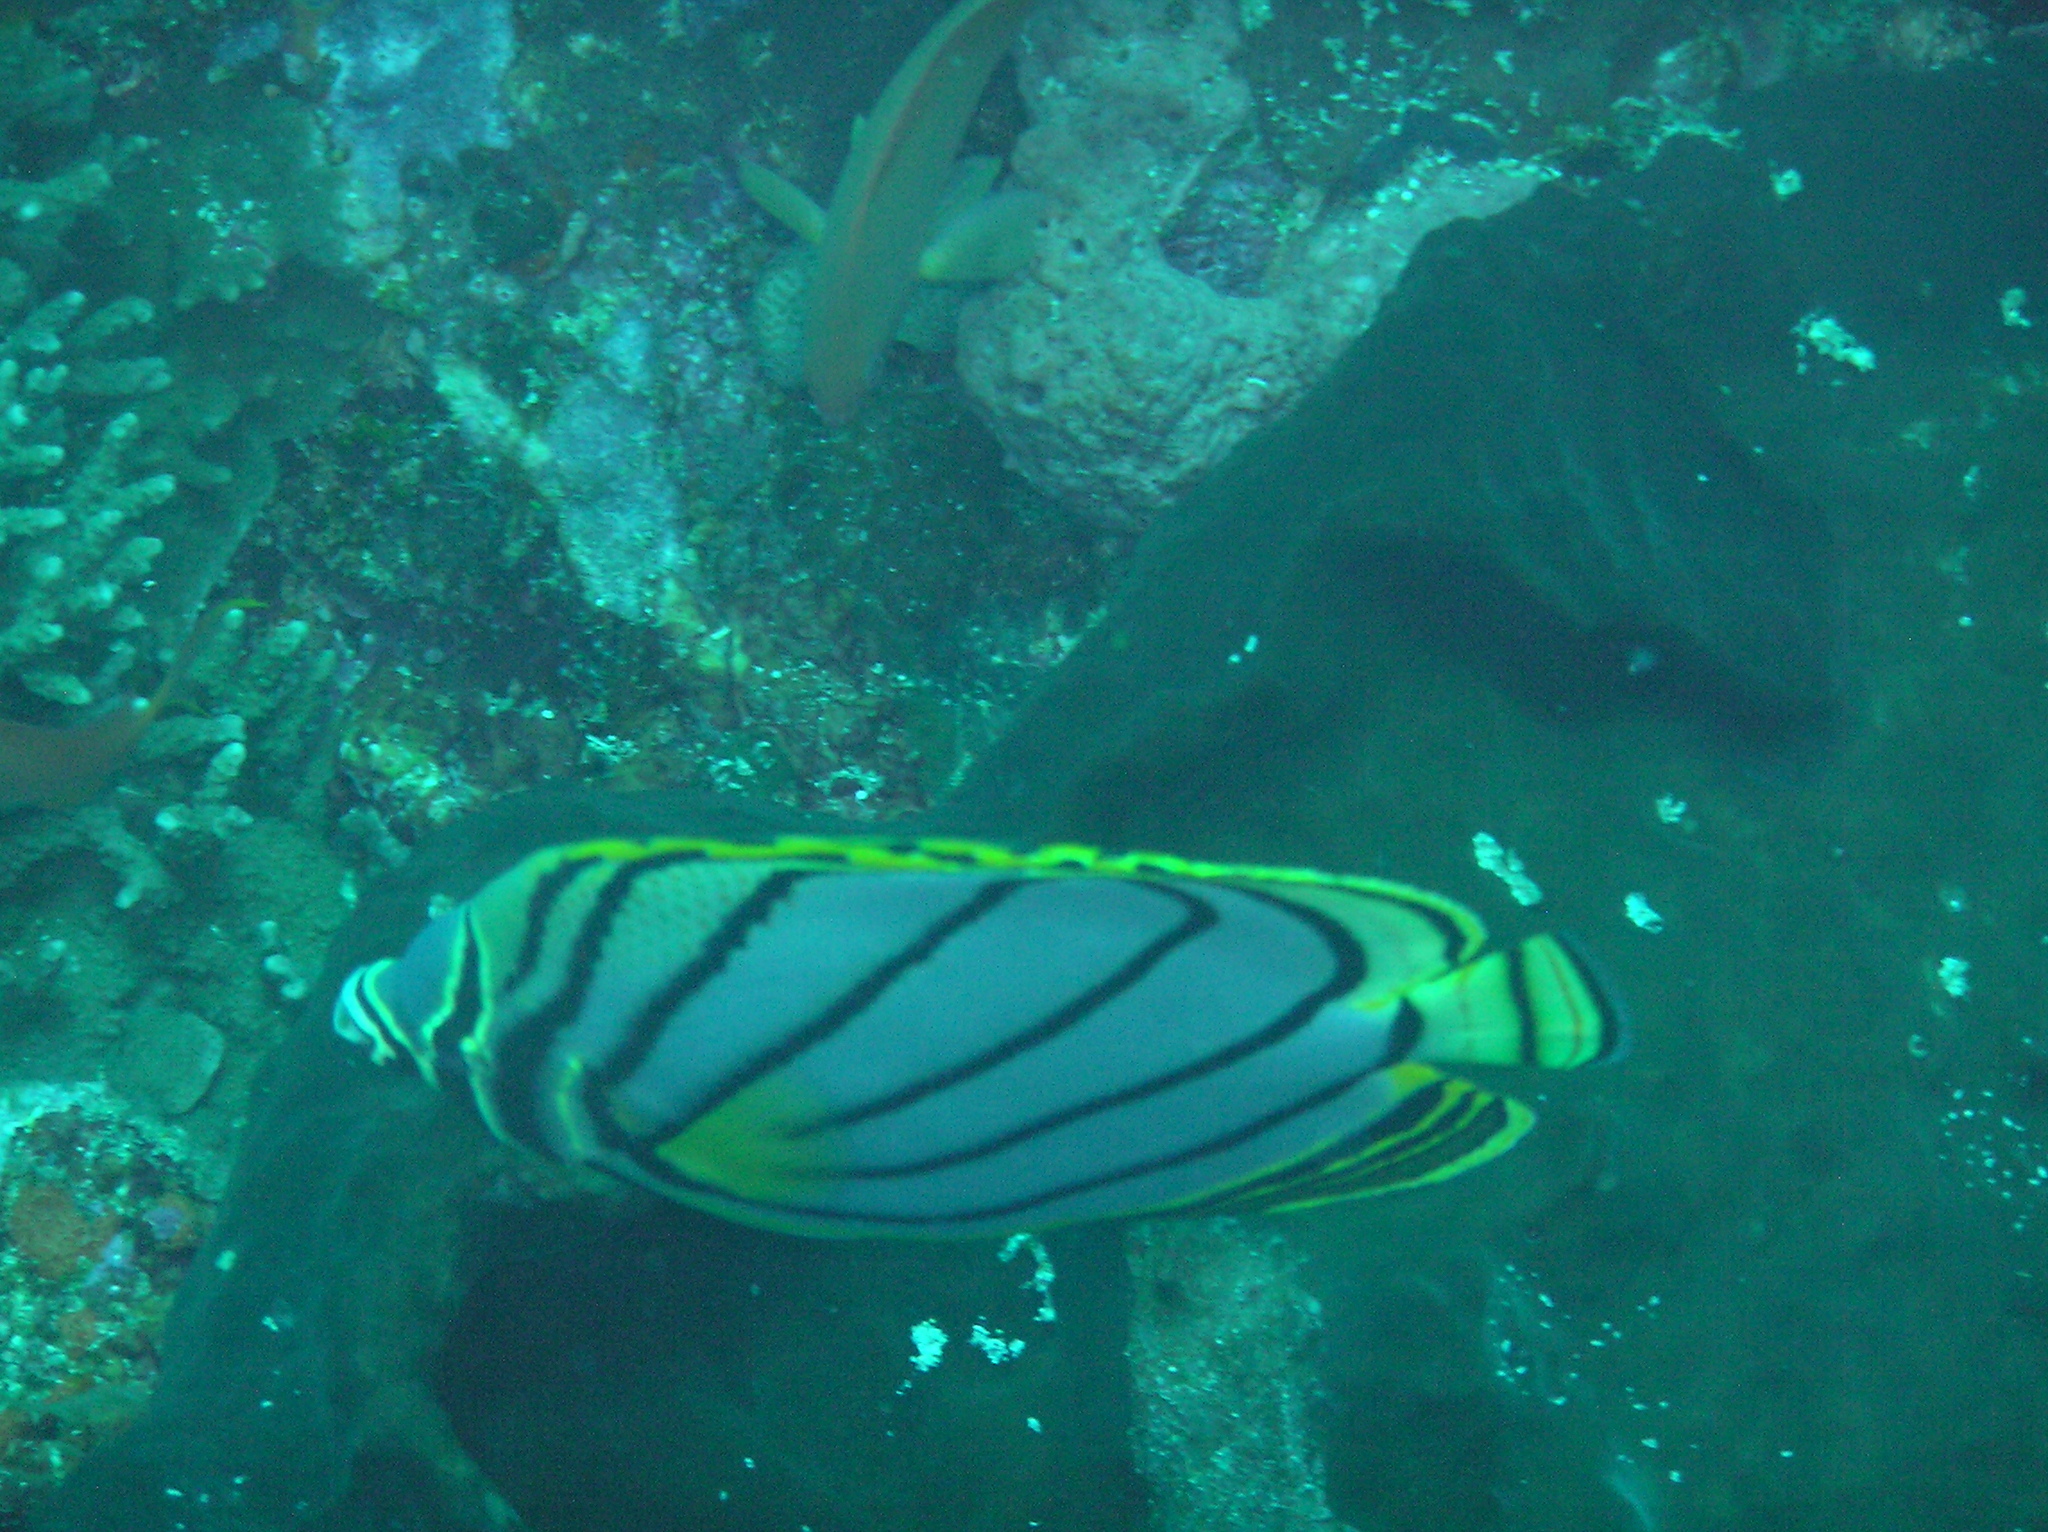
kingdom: Animalia
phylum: Chordata
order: Perciformes
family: Chaetodontidae
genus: Chaetodon
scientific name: Chaetodon meyeri
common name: Meyer's butterflyfish
